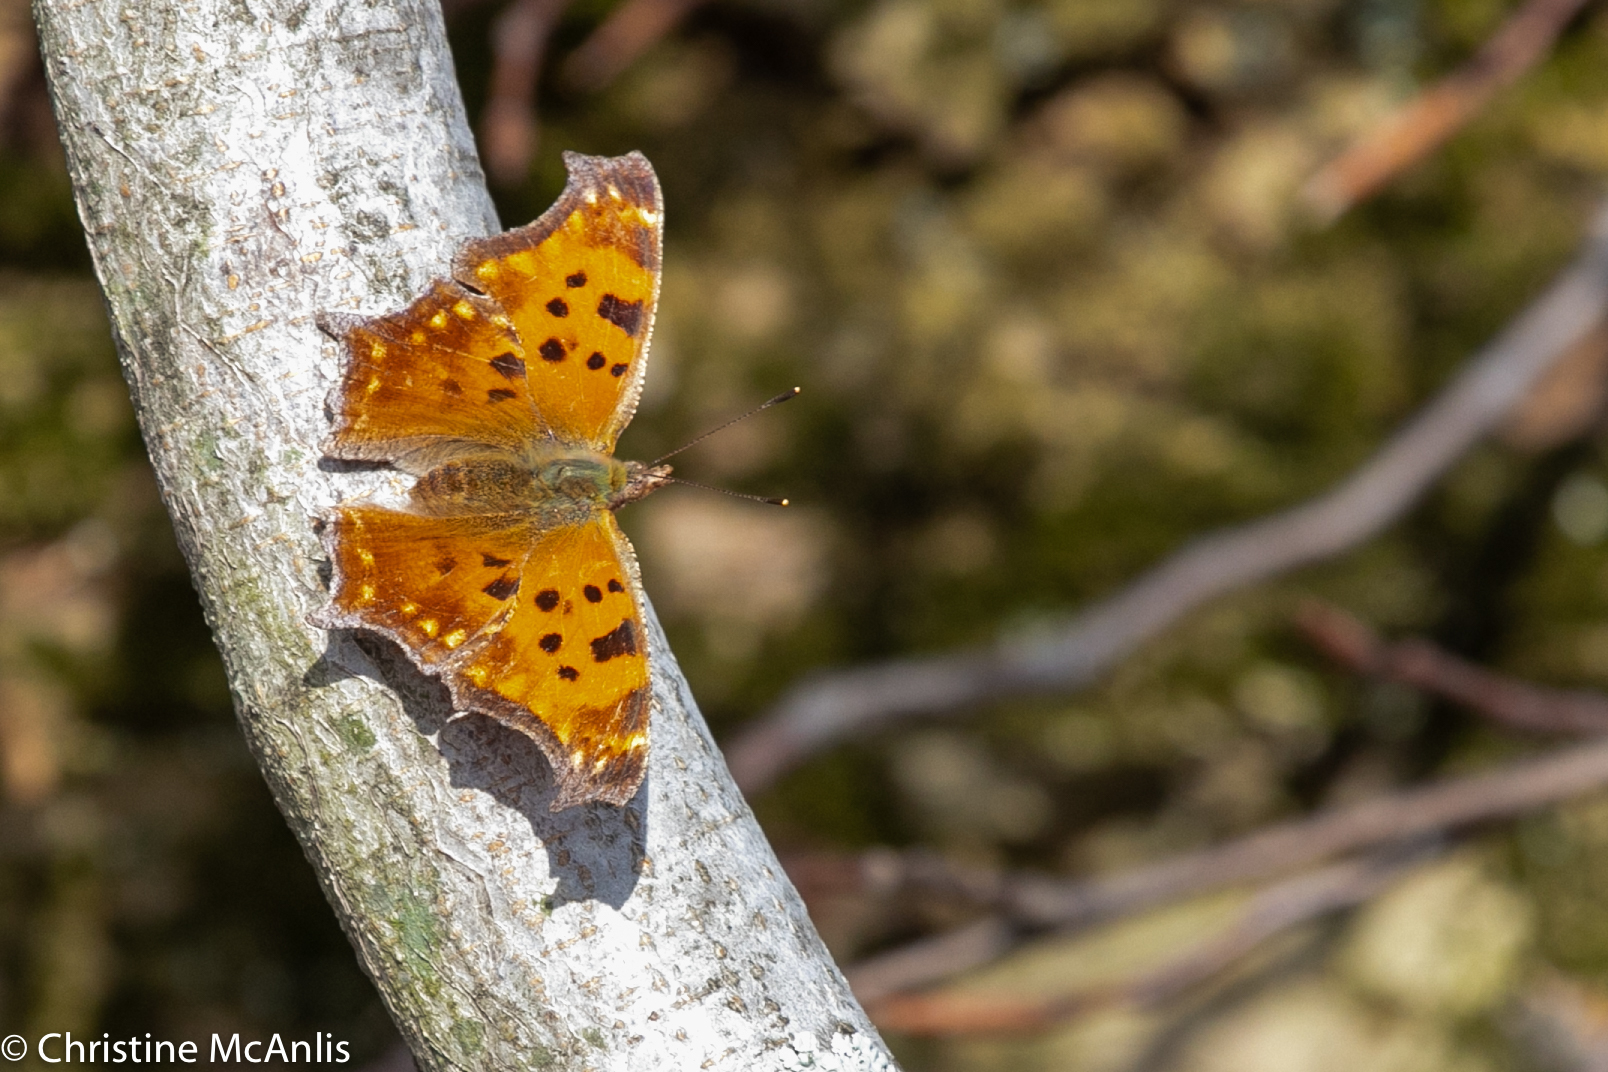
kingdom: Animalia
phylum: Arthropoda
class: Insecta
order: Lepidoptera
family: Nymphalidae
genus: Polygonia
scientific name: Polygonia comma
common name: Eastern comma
